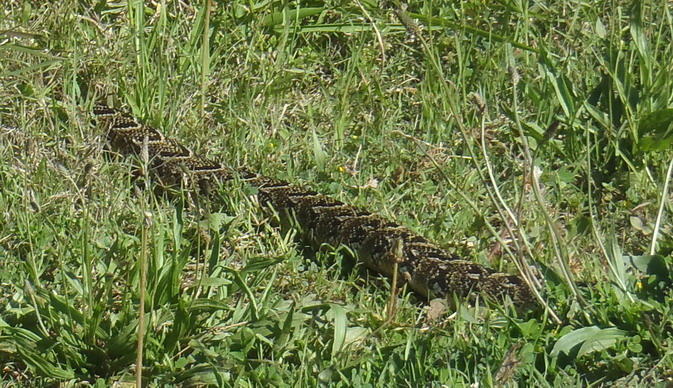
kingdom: Animalia
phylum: Chordata
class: Squamata
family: Viperidae
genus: Bitis
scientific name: Bitis arietans
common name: Puff adder
